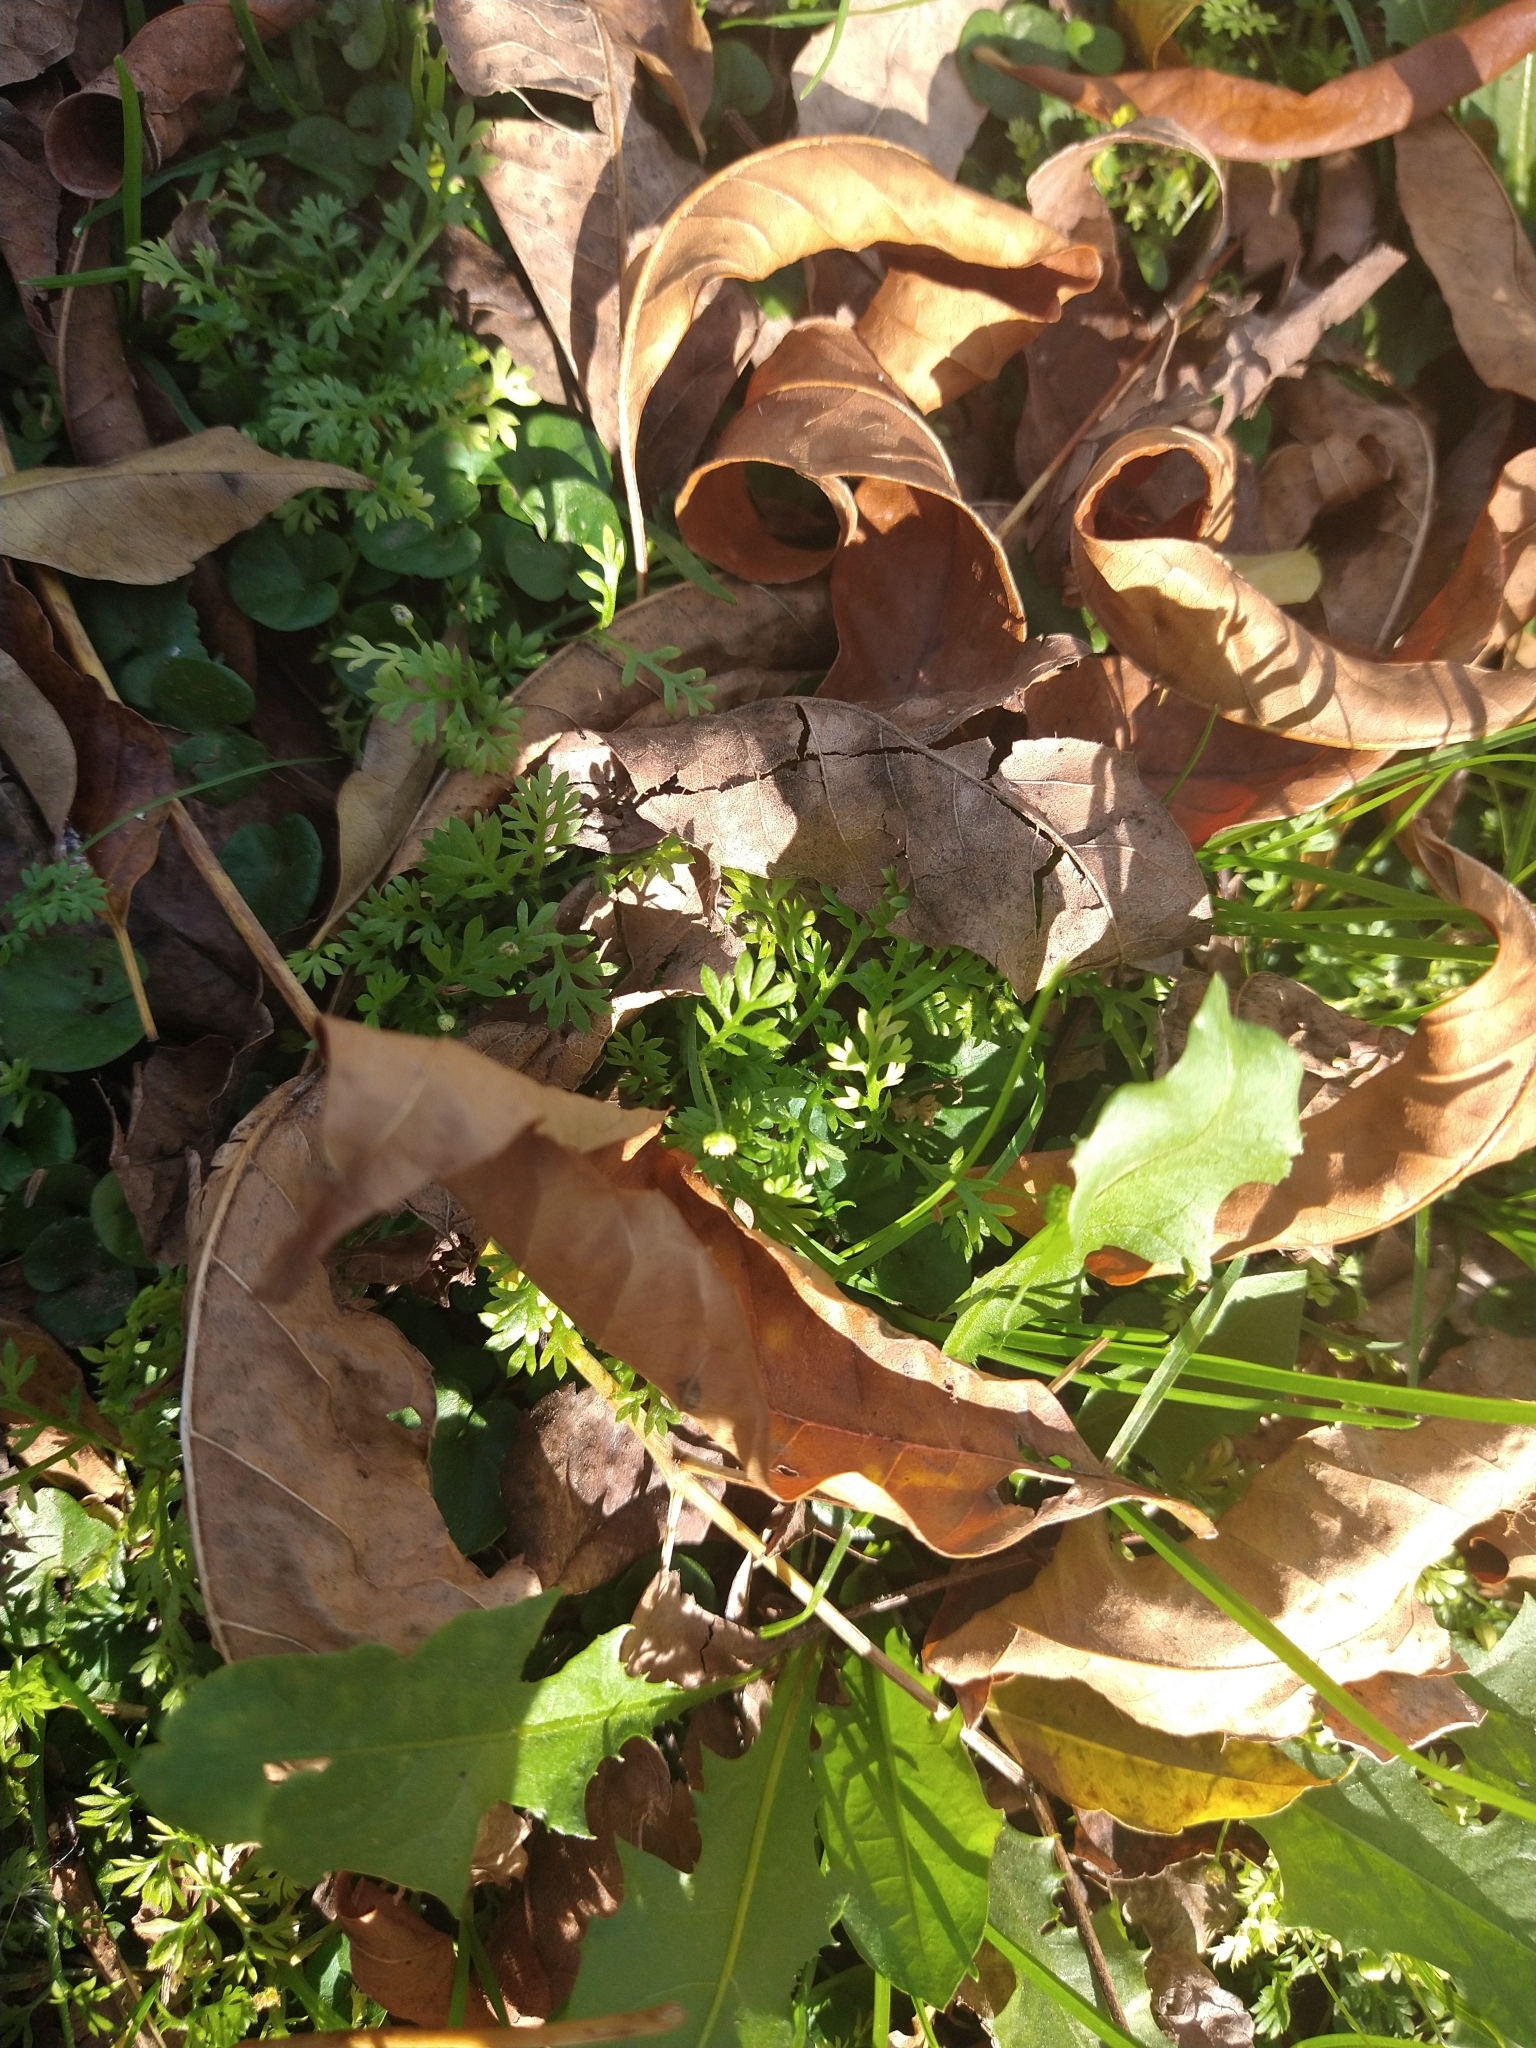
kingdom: Plantae
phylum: Tracheophyta
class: Magnoliopsida
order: Asterales
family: Asteraceae
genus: Cotula
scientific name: Cotula australis
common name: Australian waterbuttons
